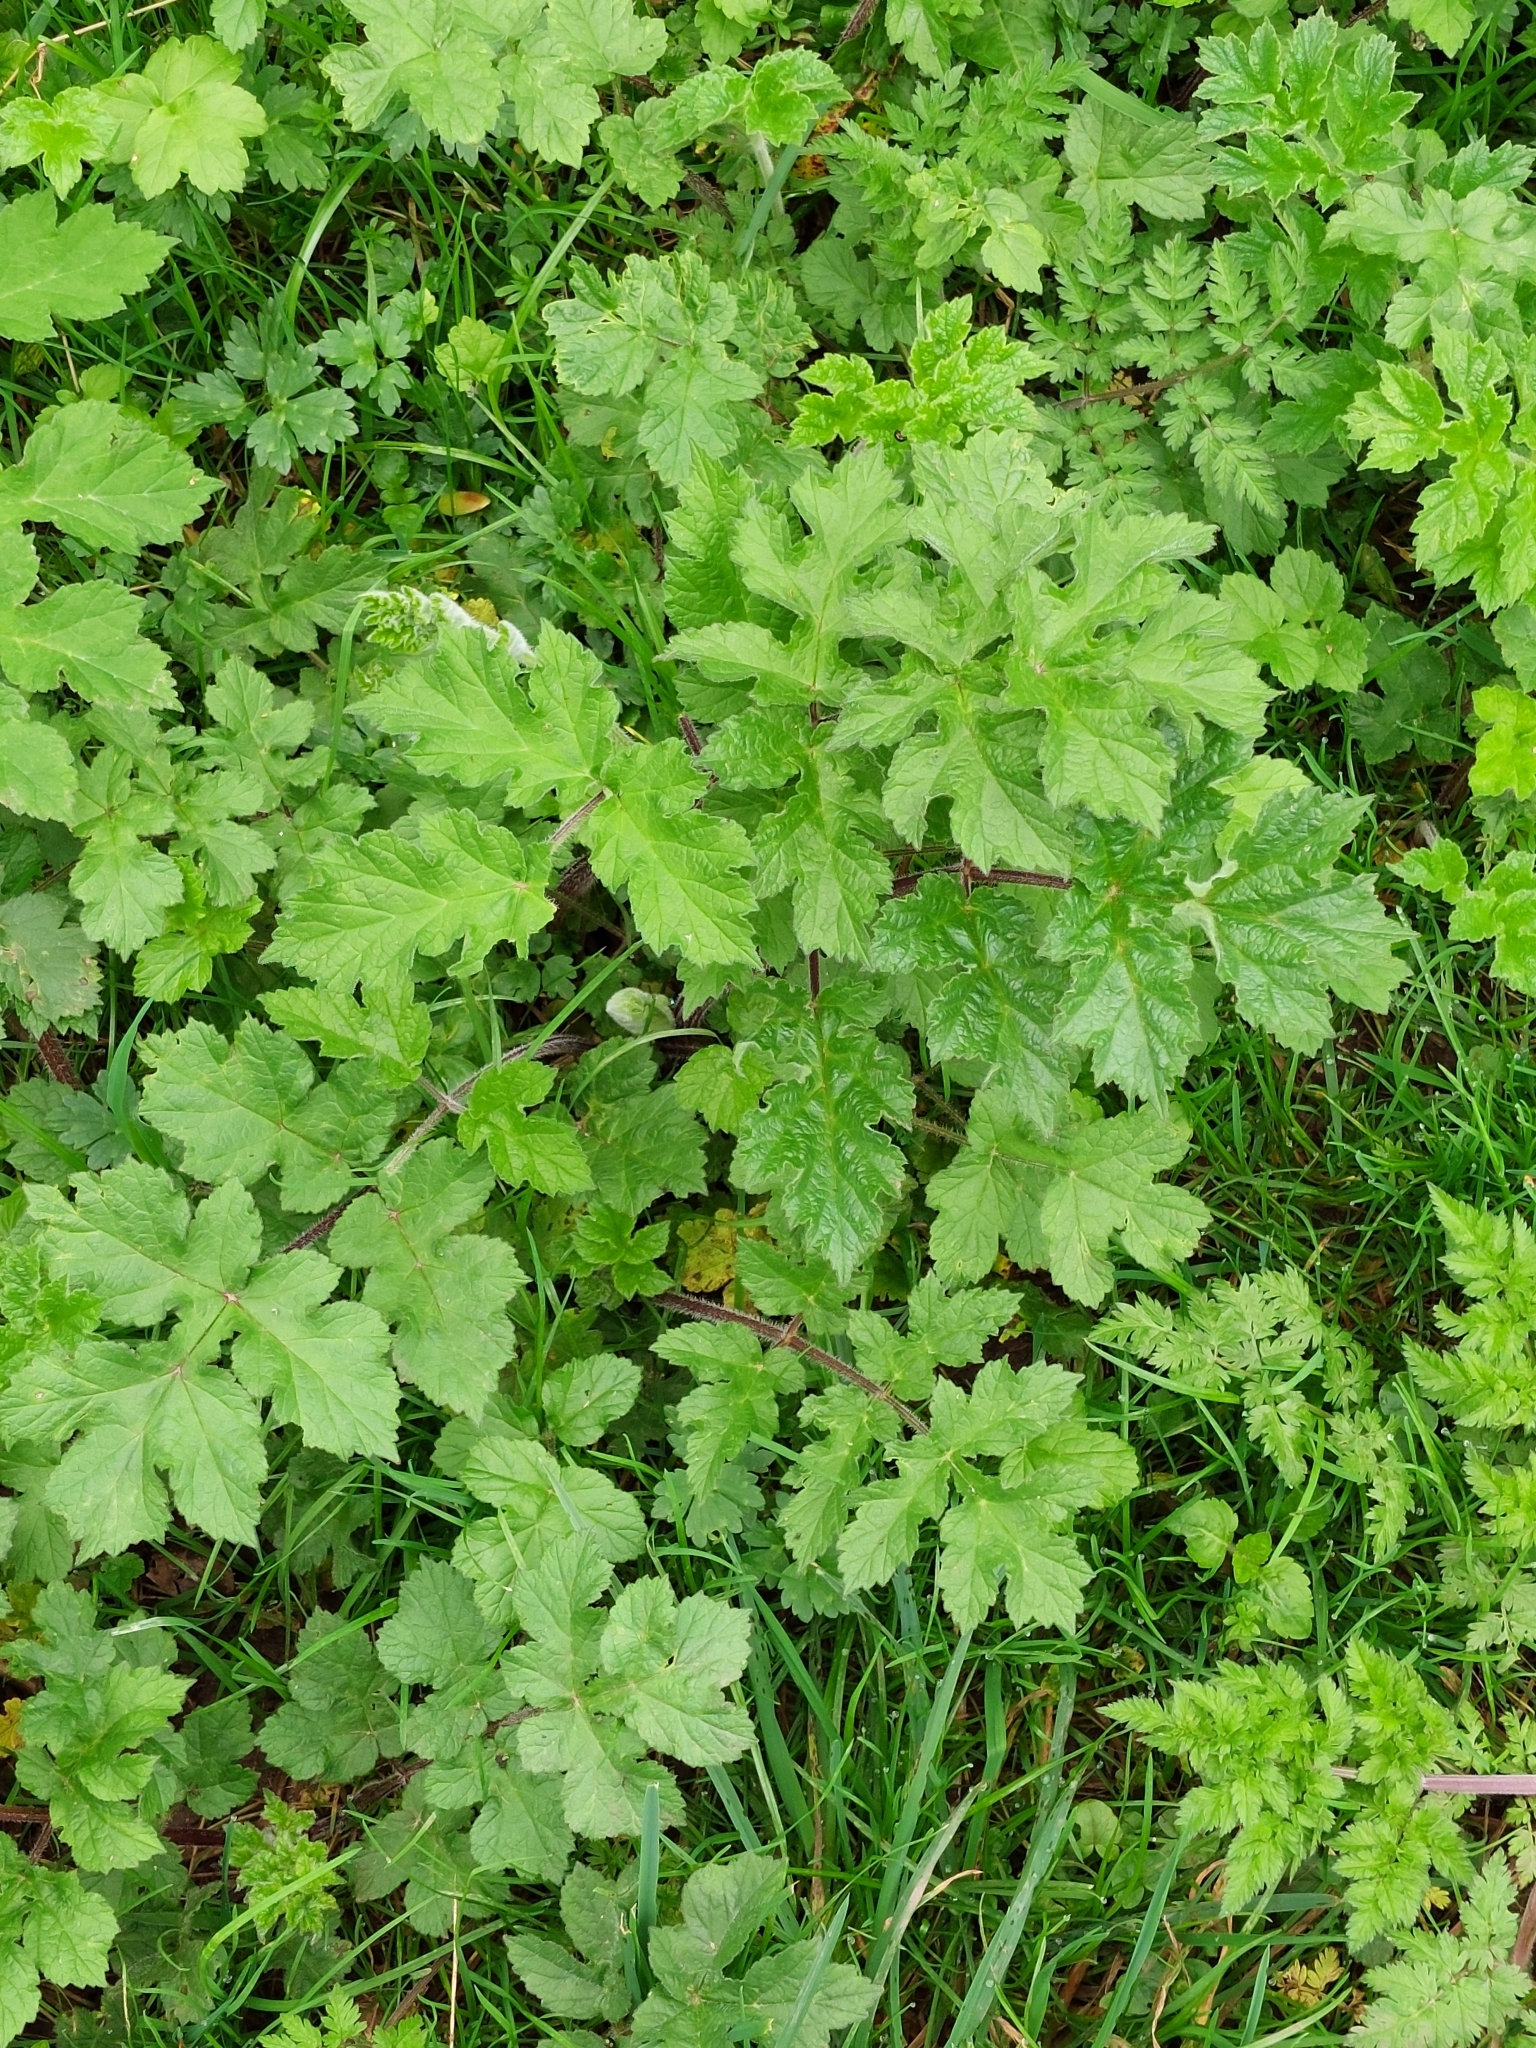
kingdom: Plantae
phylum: Tracheophyta
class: Magnoliopsida
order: Apiales
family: Apiaceae
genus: Heracleum
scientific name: Heracleum sphondylium
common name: Hogweed
